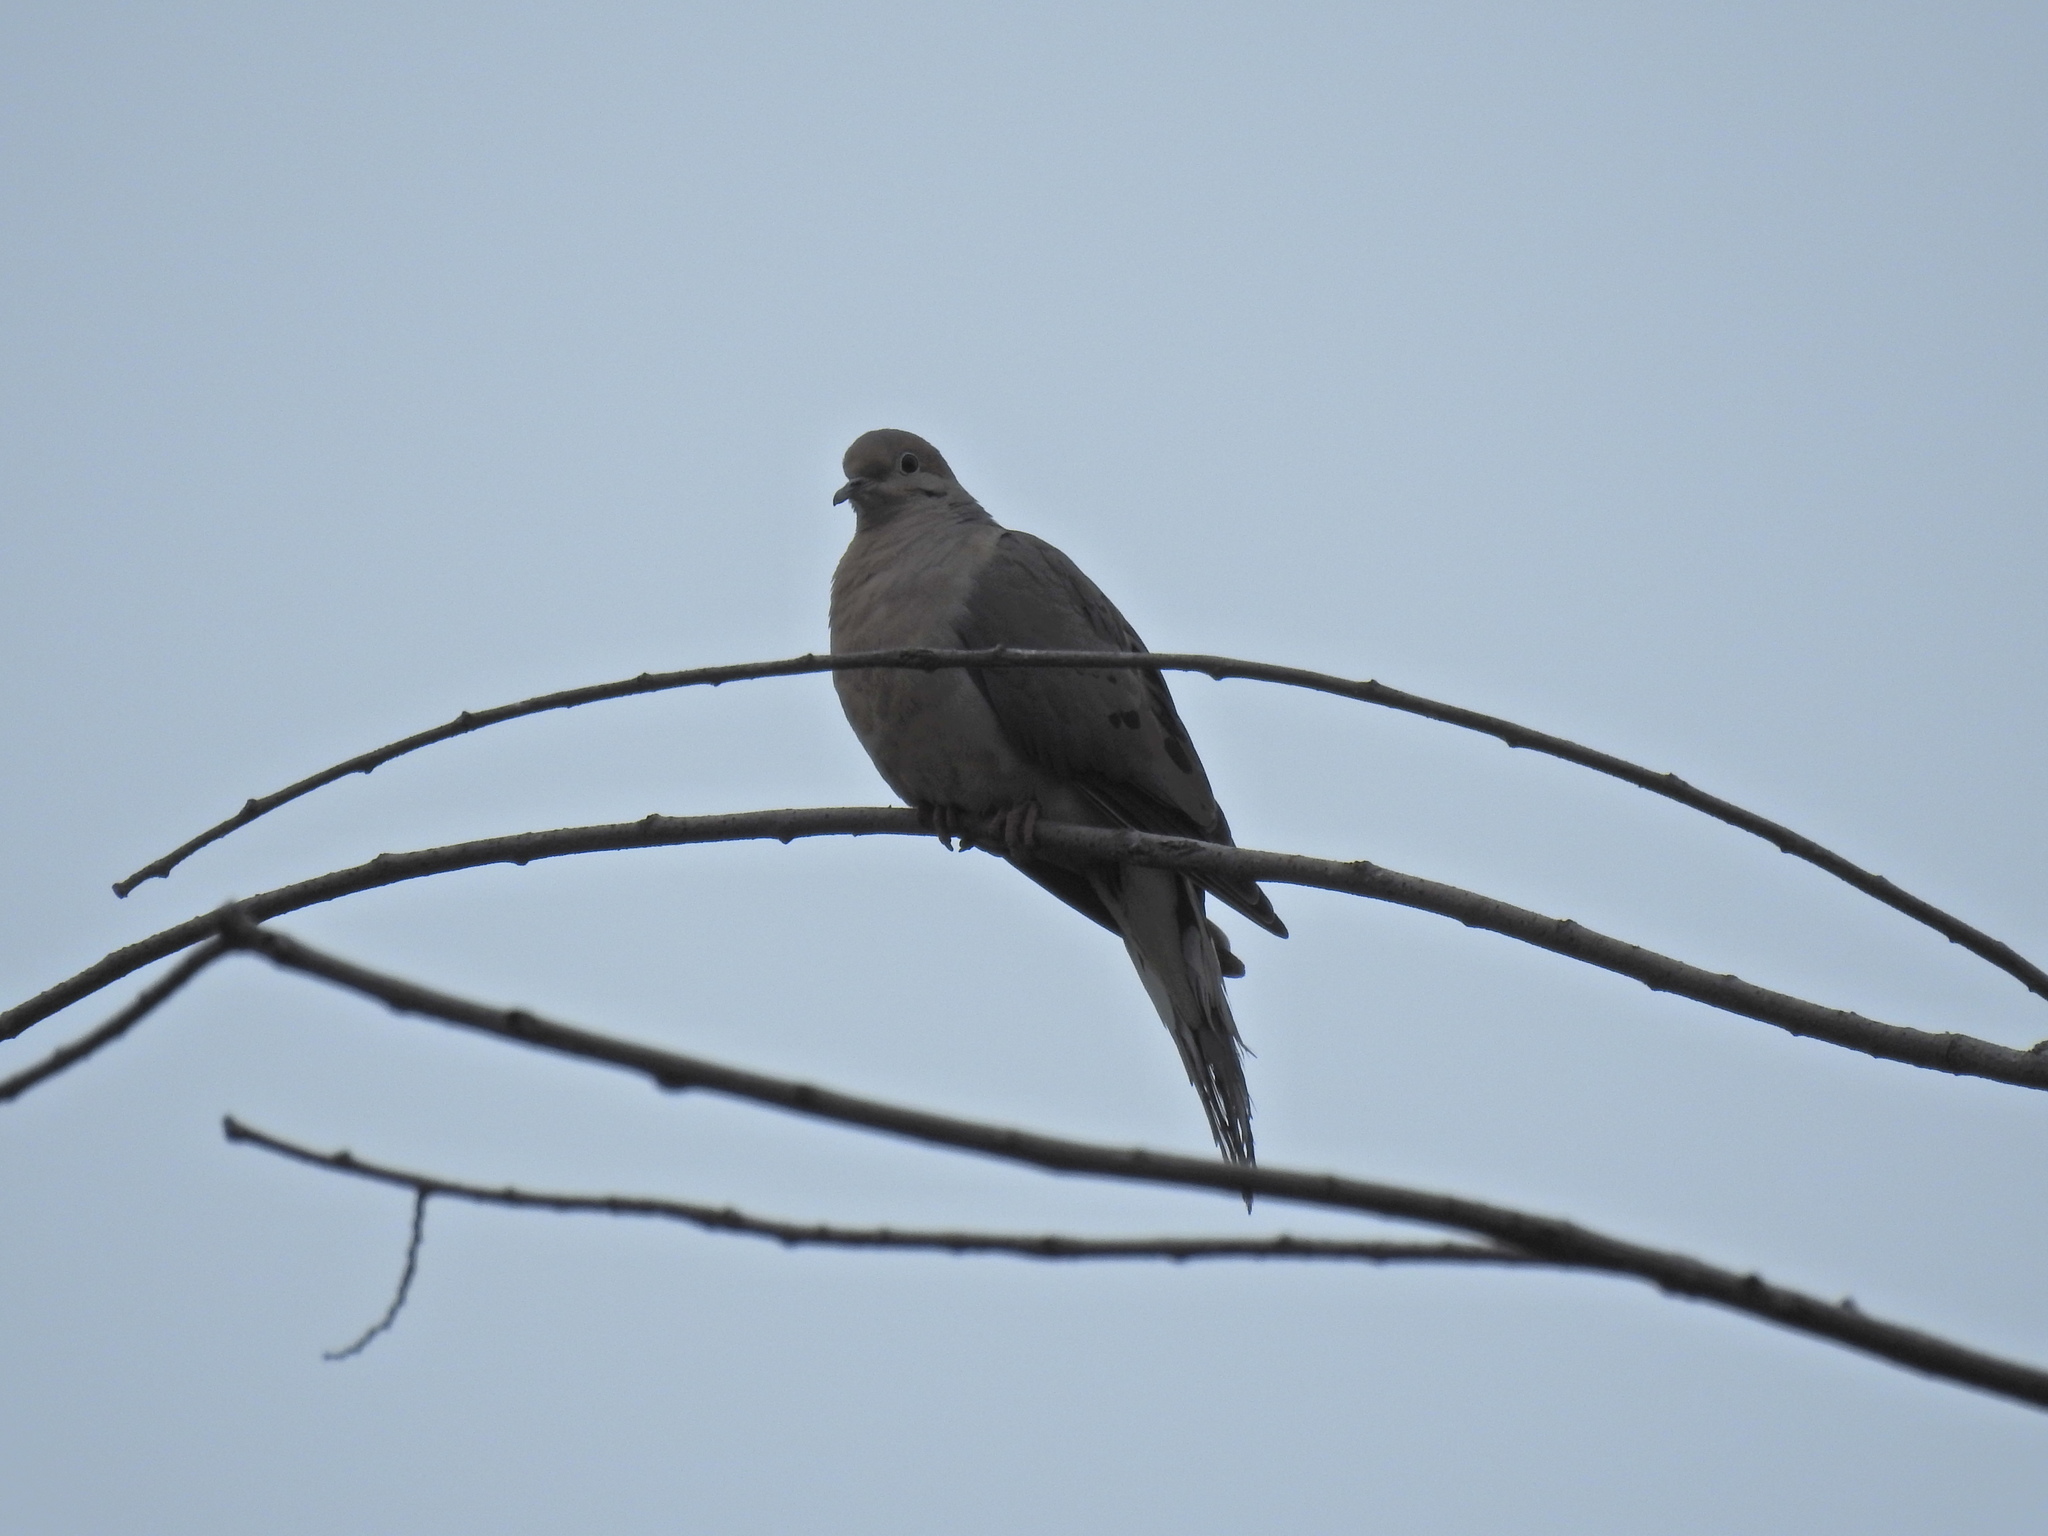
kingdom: Animalia
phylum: Chordata
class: Aves
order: Columbiformes
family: Columbidae
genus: Zenaida
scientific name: Zenaida macroura
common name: Mourning dove
